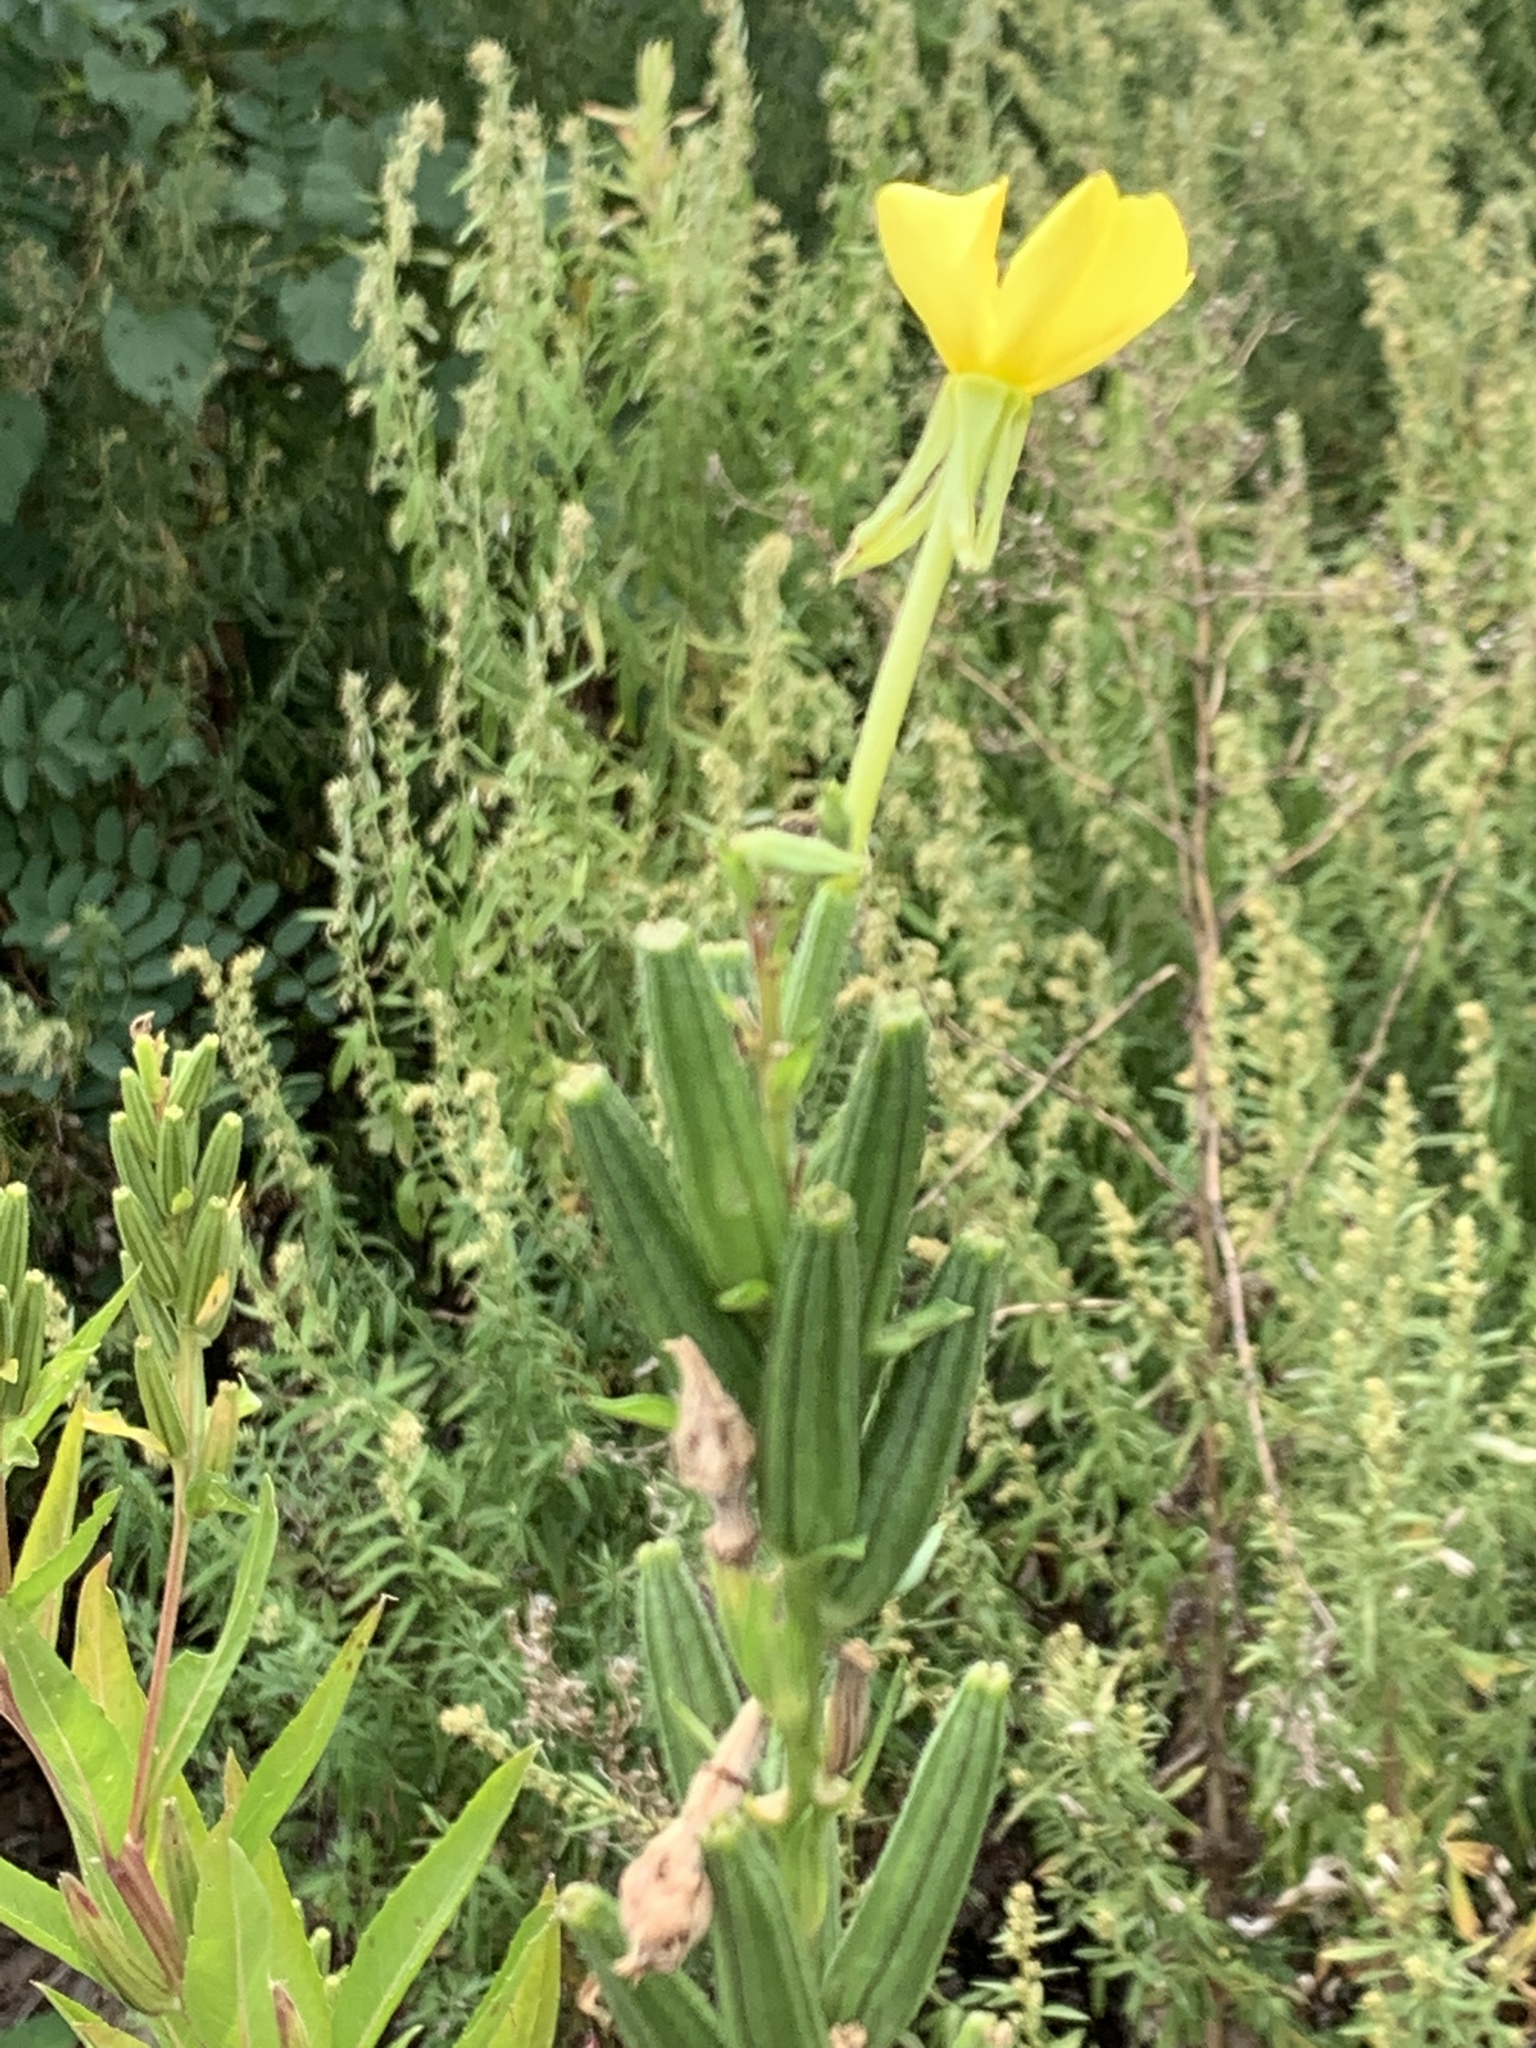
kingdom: Plantae
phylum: Tracheophyta
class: Magnoliopsida
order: Myrtales
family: Onagraceae
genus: Oenothera
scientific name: Oenothera biennis
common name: Common evening-primrose
